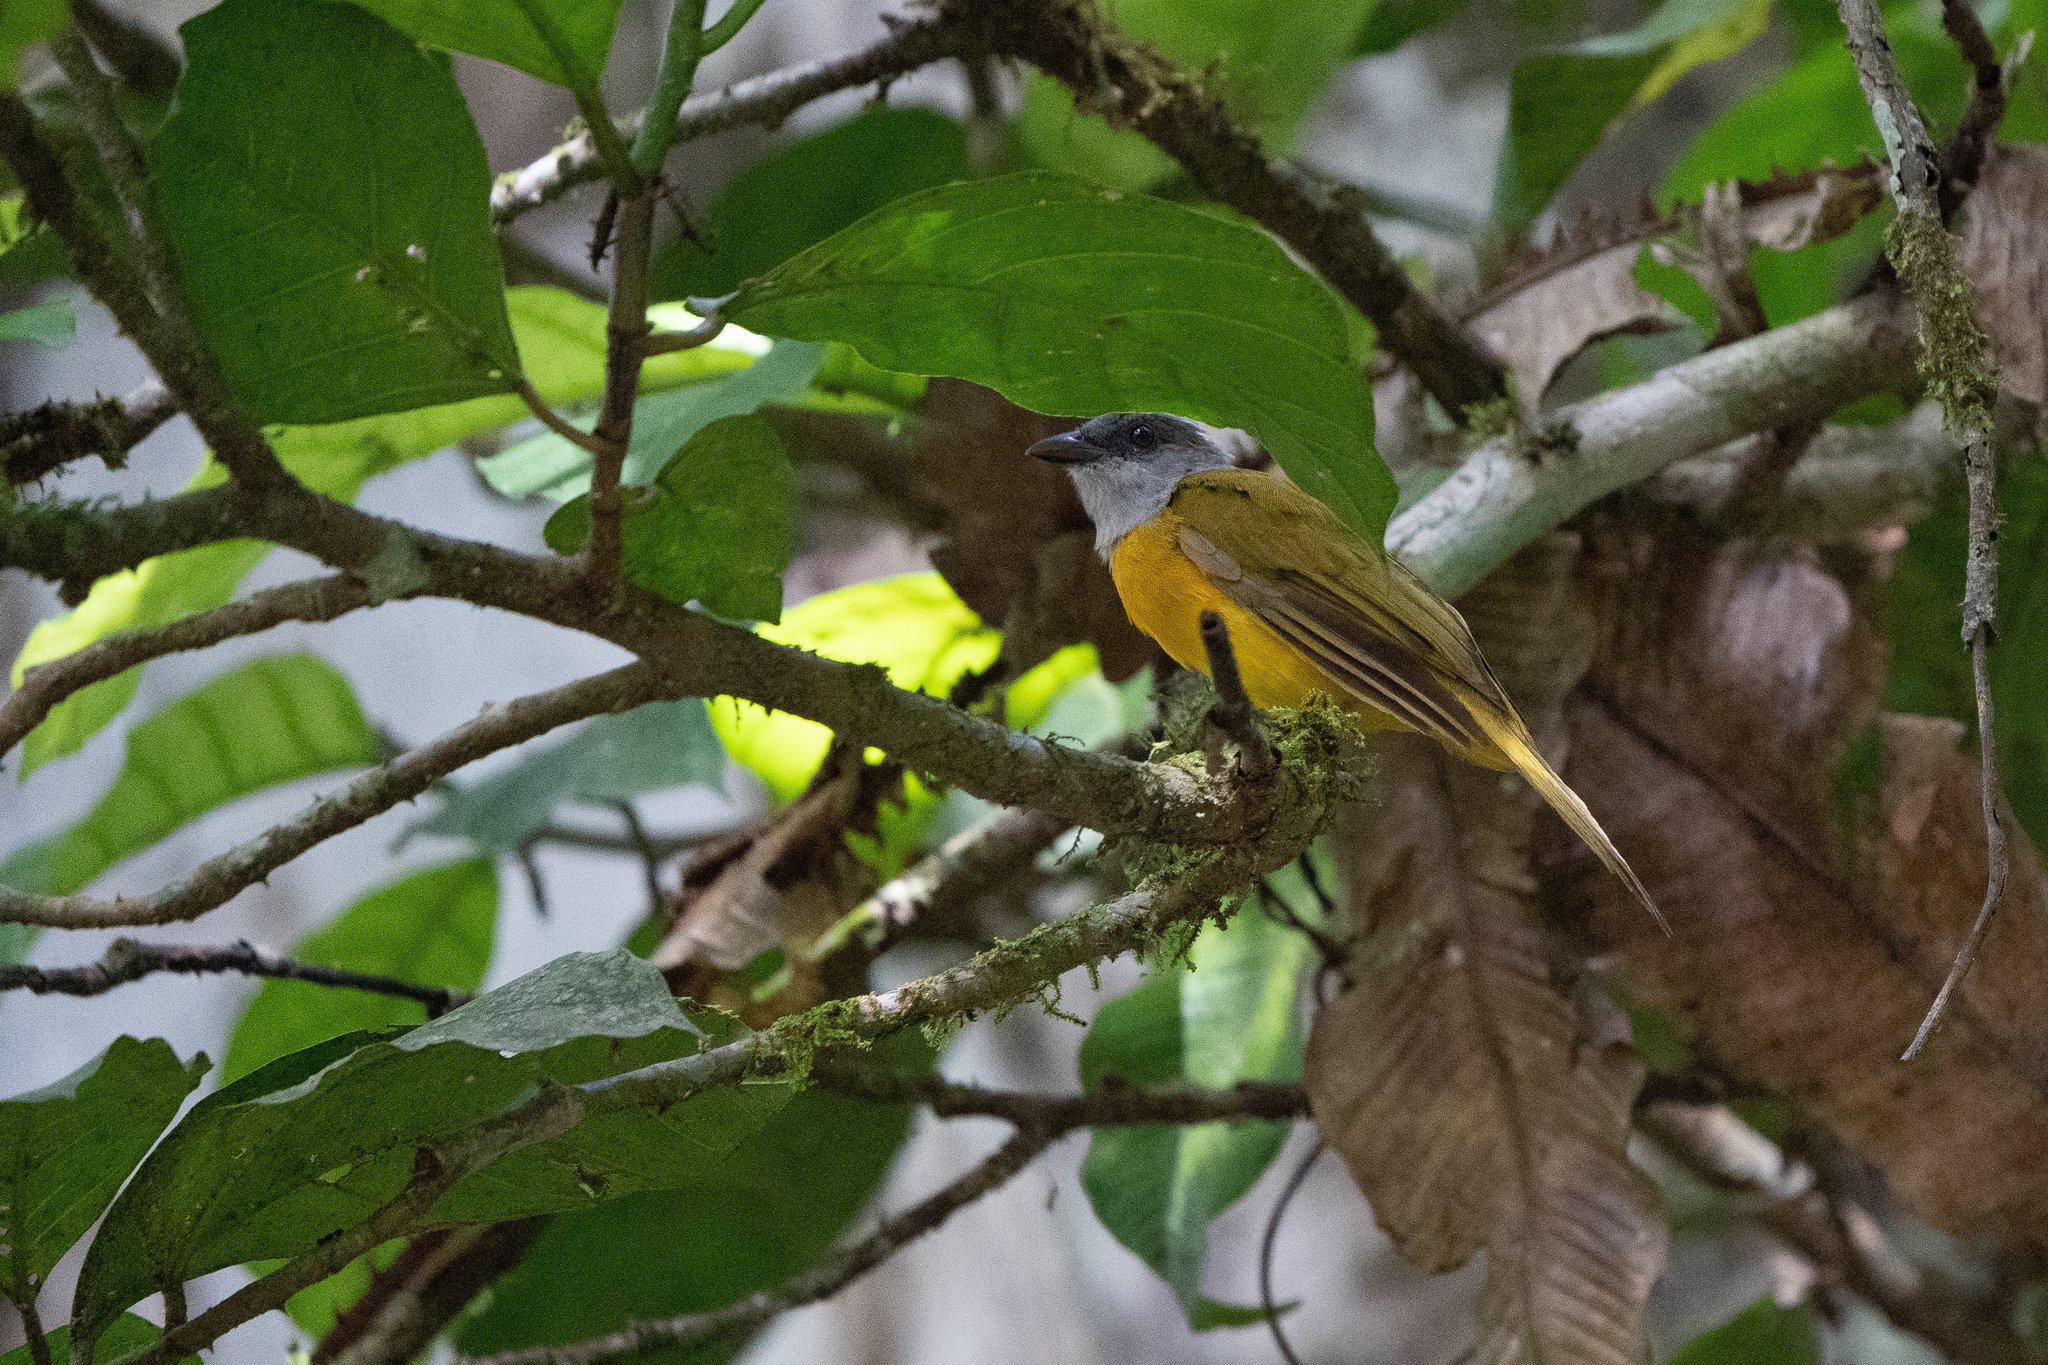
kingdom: Animalia
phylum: Chordata
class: Aves
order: Passeriformes
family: Thraupidae
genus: Eucometis
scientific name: Eucometis penicillata
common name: Grey-headed tanager
